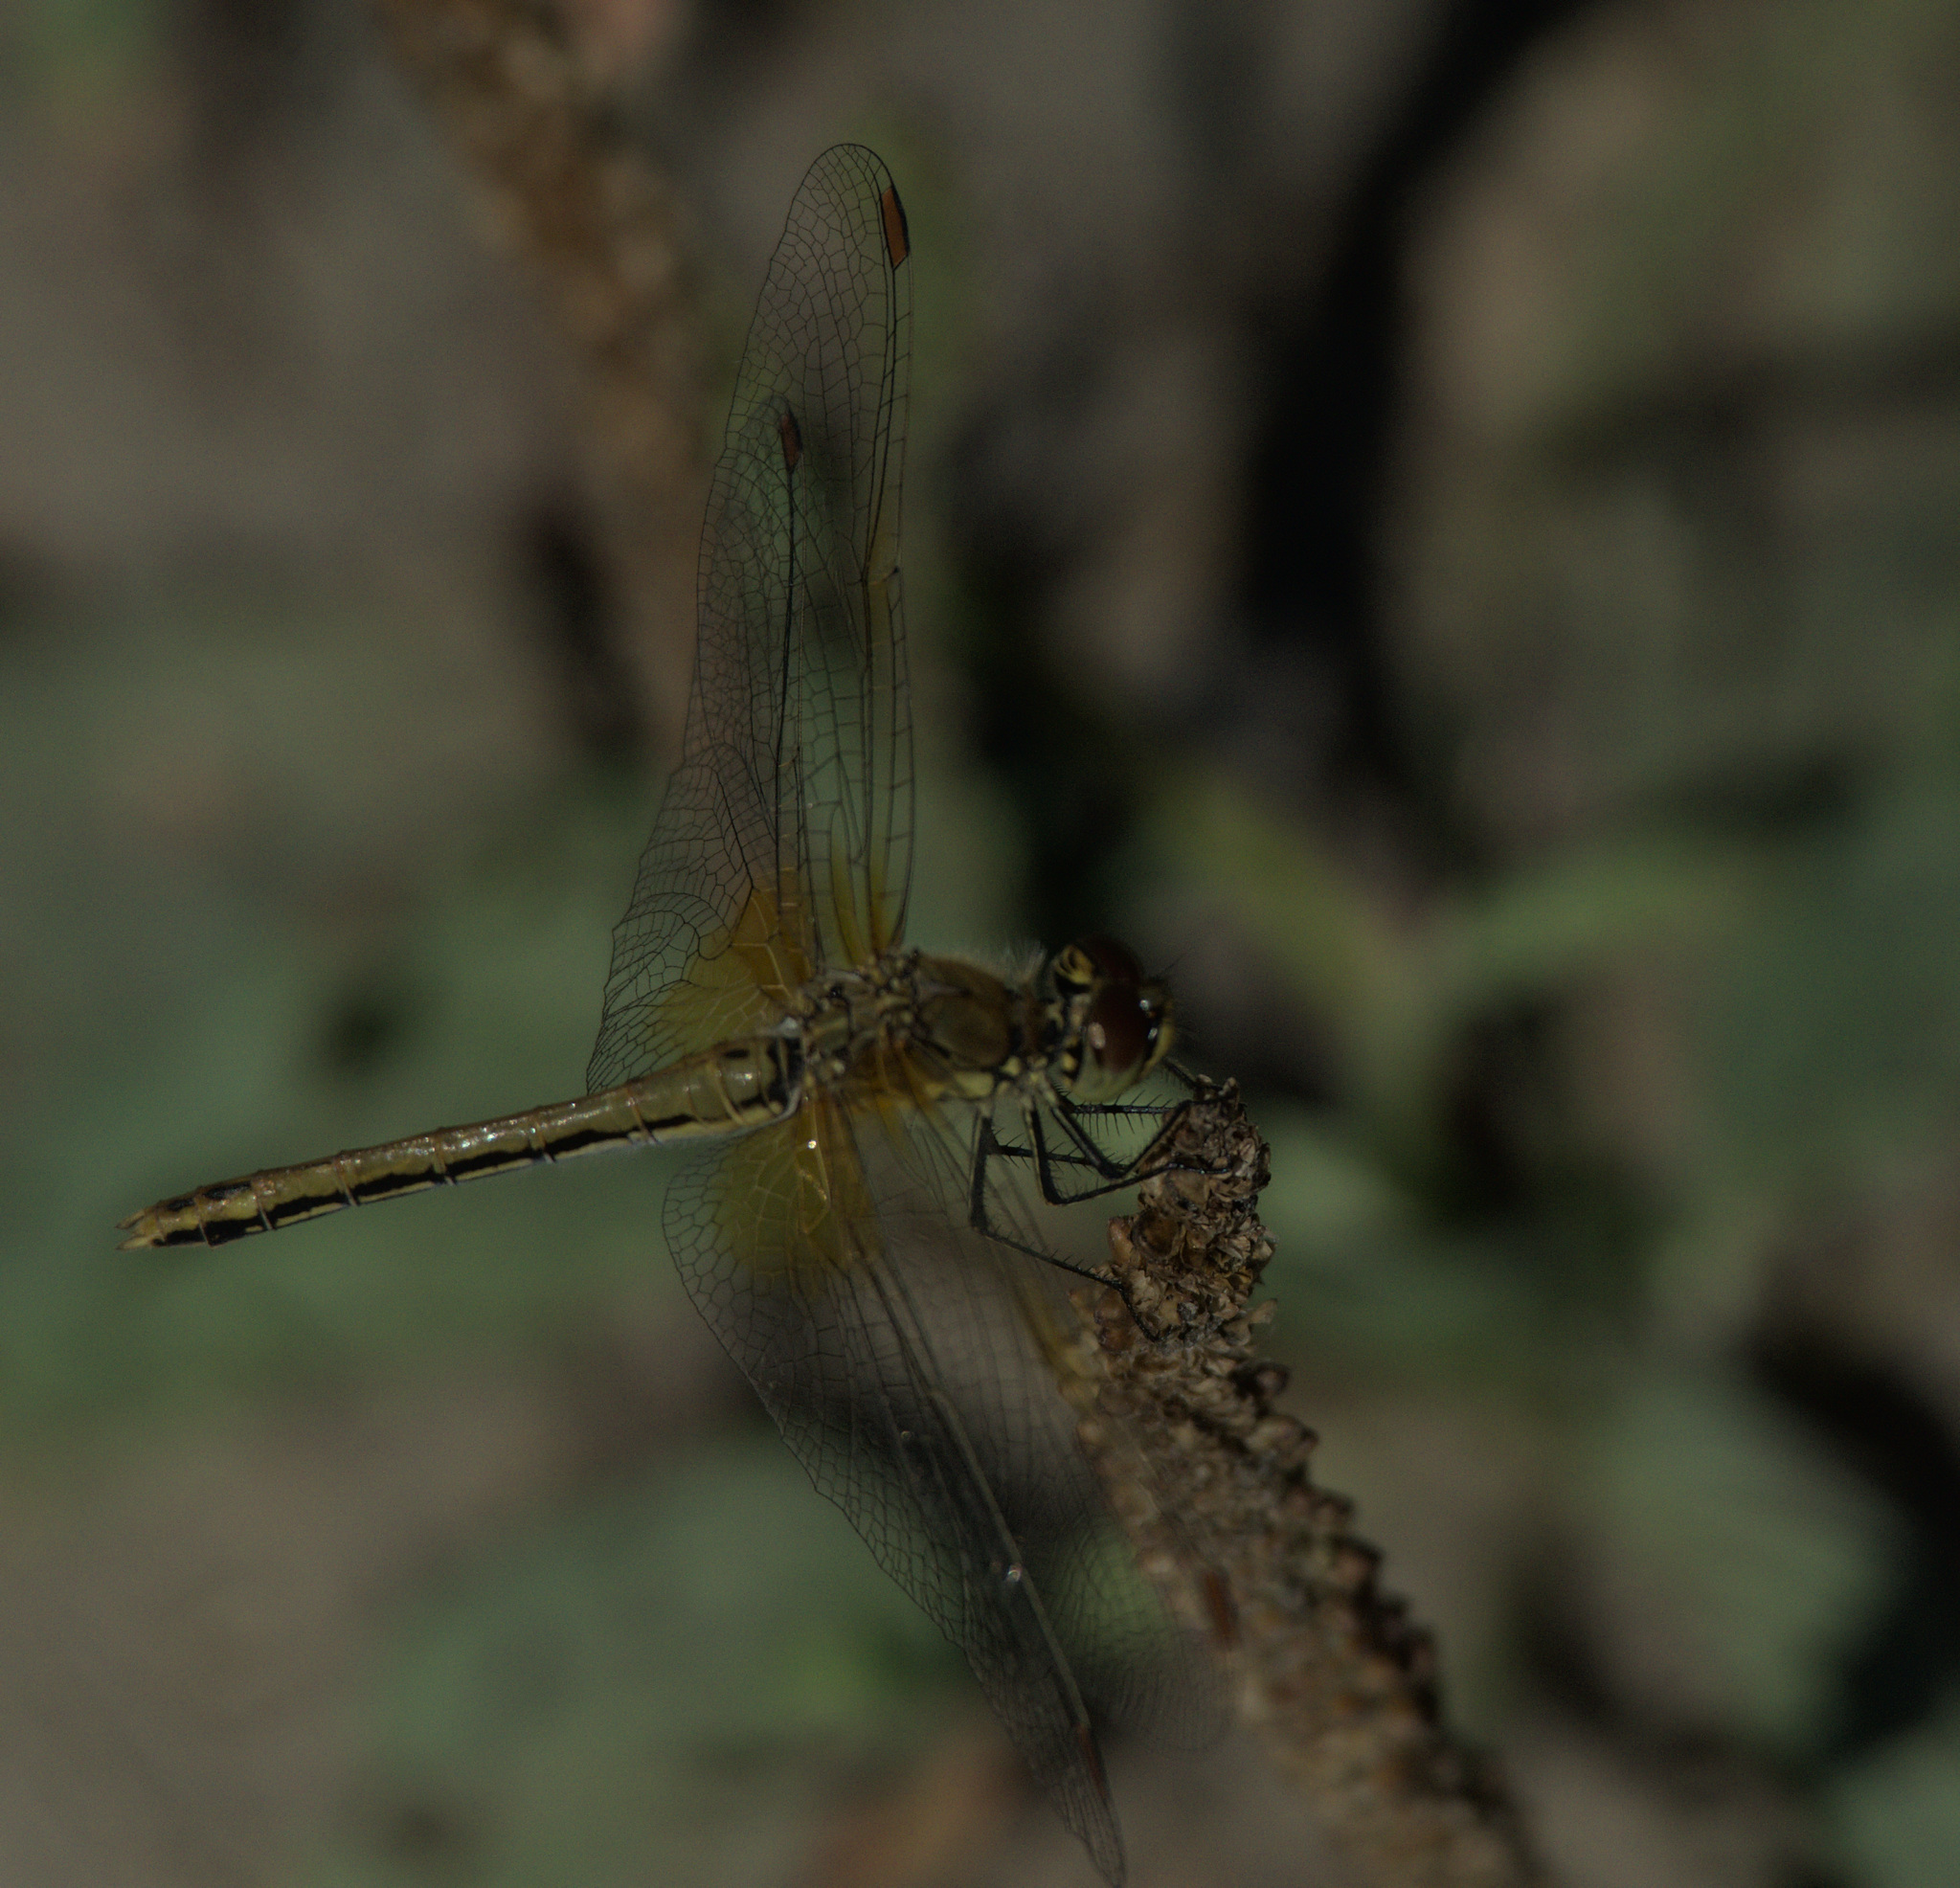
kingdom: Animalia
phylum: Arthropoda
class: Insecta
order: Odonata
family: Libellulidae
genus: Sympetrum
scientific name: Sympetrum flaveolum
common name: Yellow-winged darter
